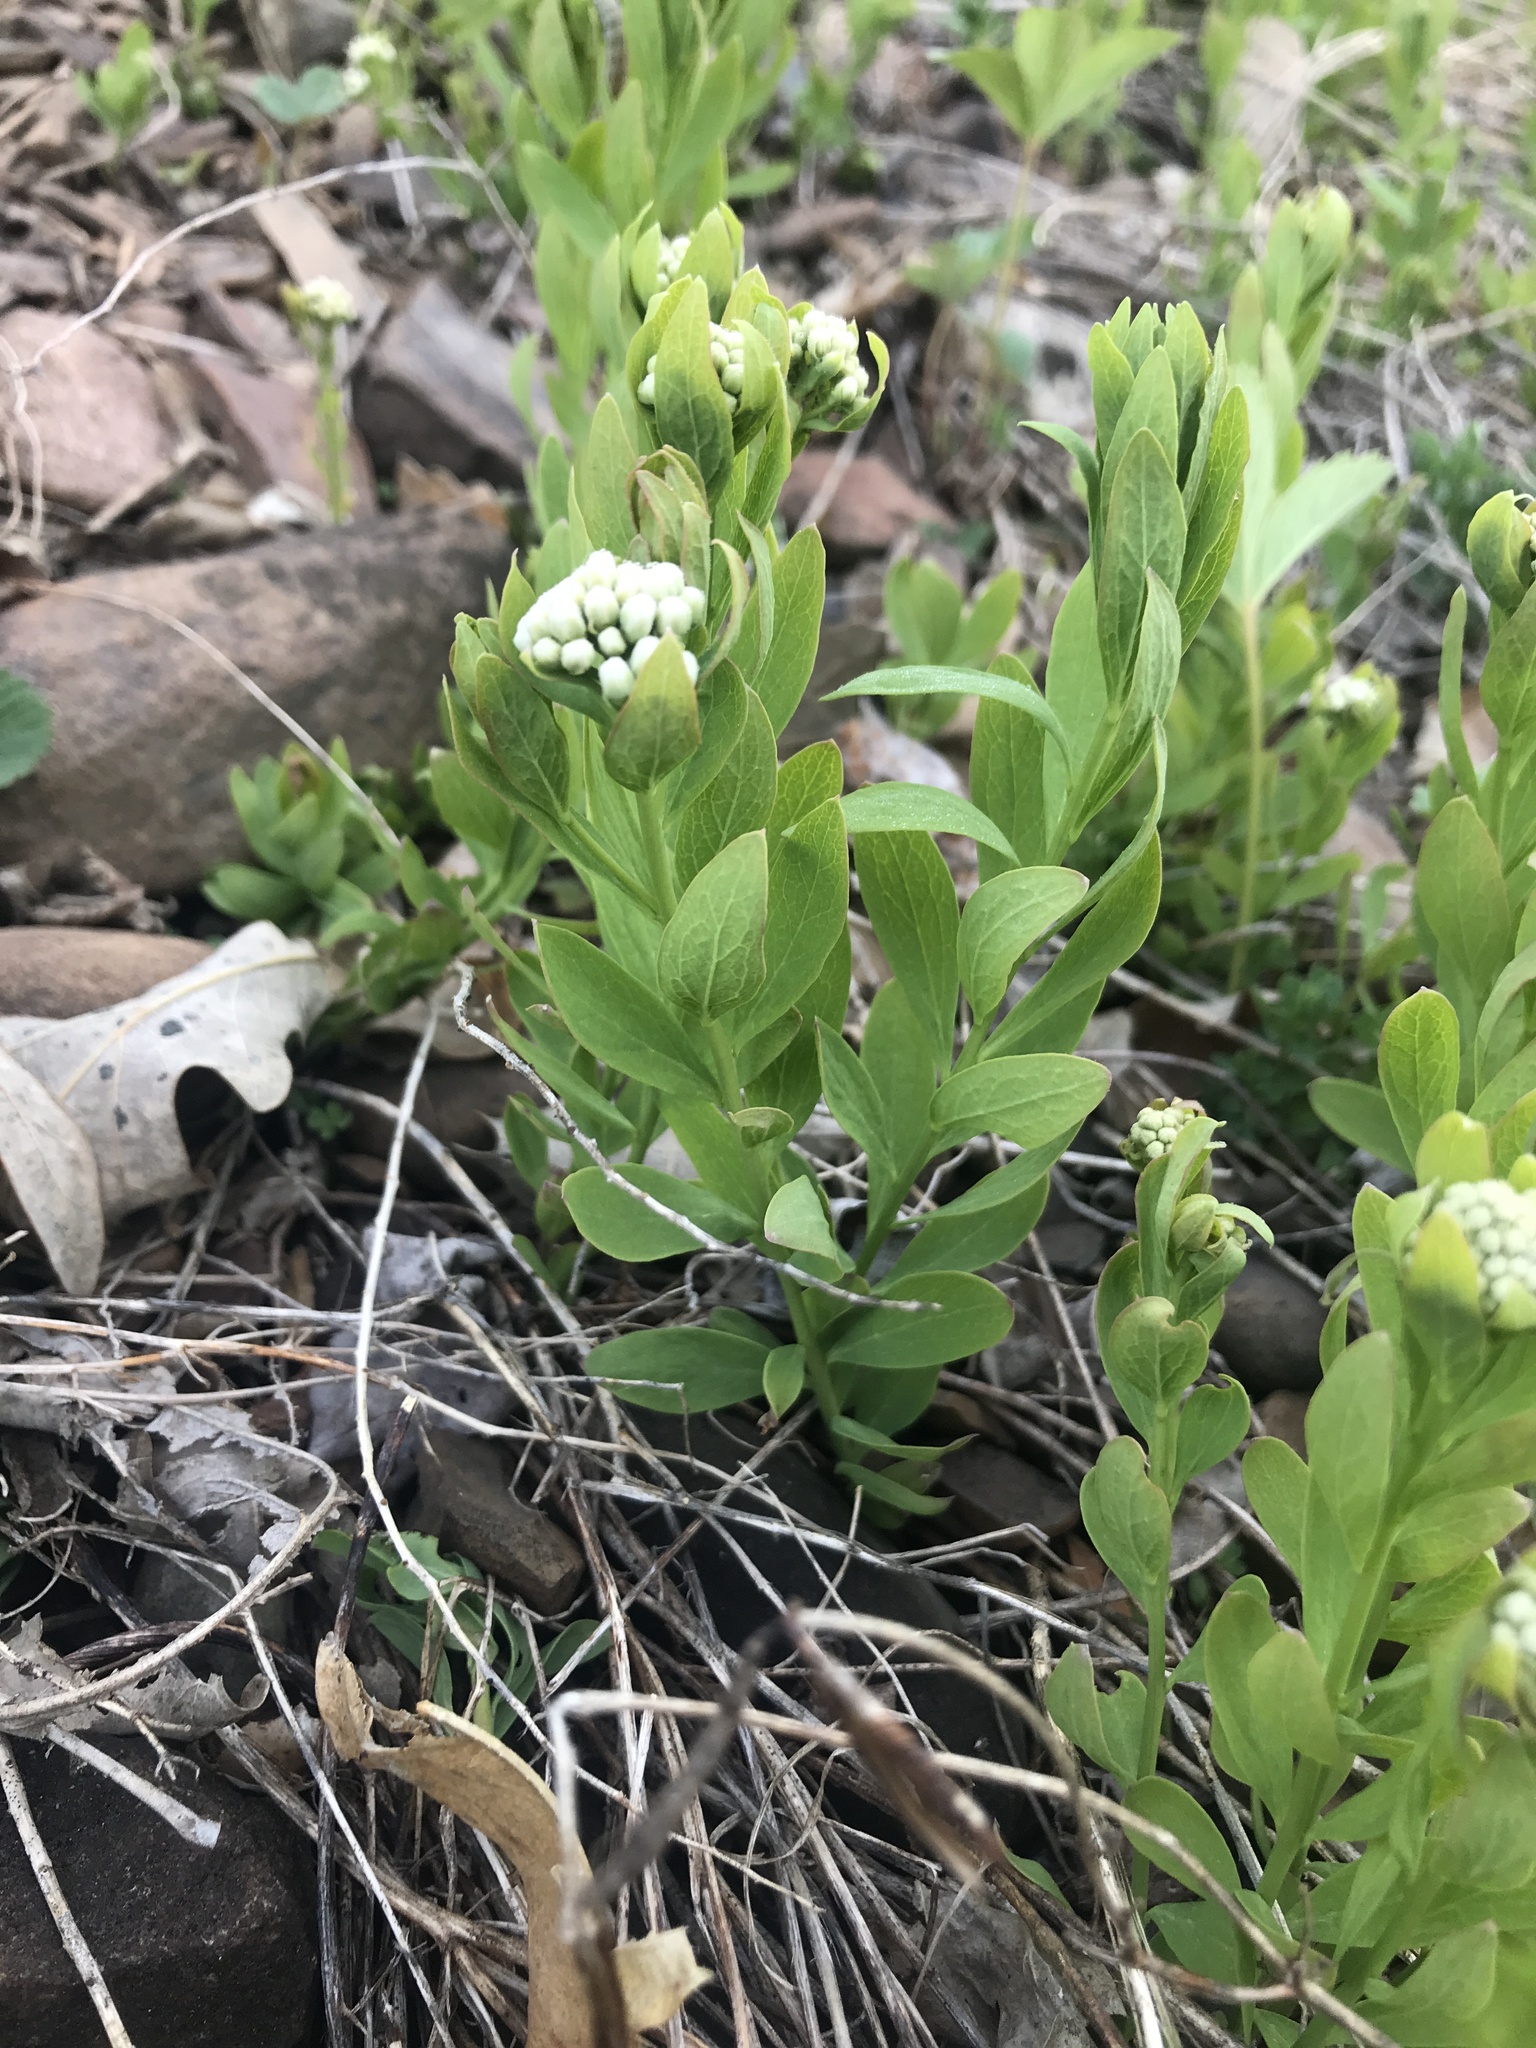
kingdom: Plantae
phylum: Tracheophyta
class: Magnoliopsida
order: Santalales
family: Comandraceae
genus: Comandra
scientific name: Comandra umbellata
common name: Bastard toadflax
